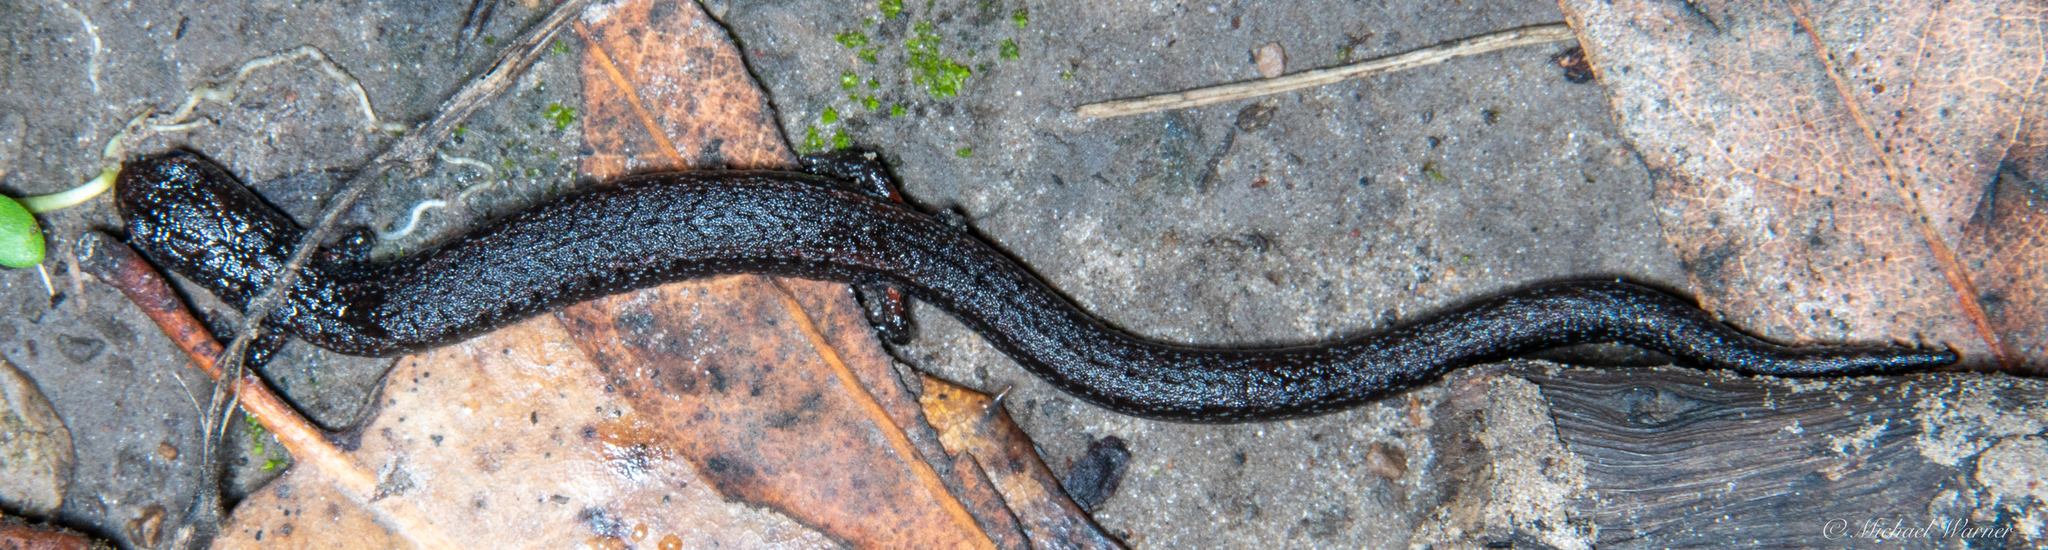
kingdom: Animalia
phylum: Chordata
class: Amphibia
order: Caudata
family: Plethodontidae
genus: Batrachoseps
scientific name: Batrachoseps attenuatus
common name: California slender salamander
